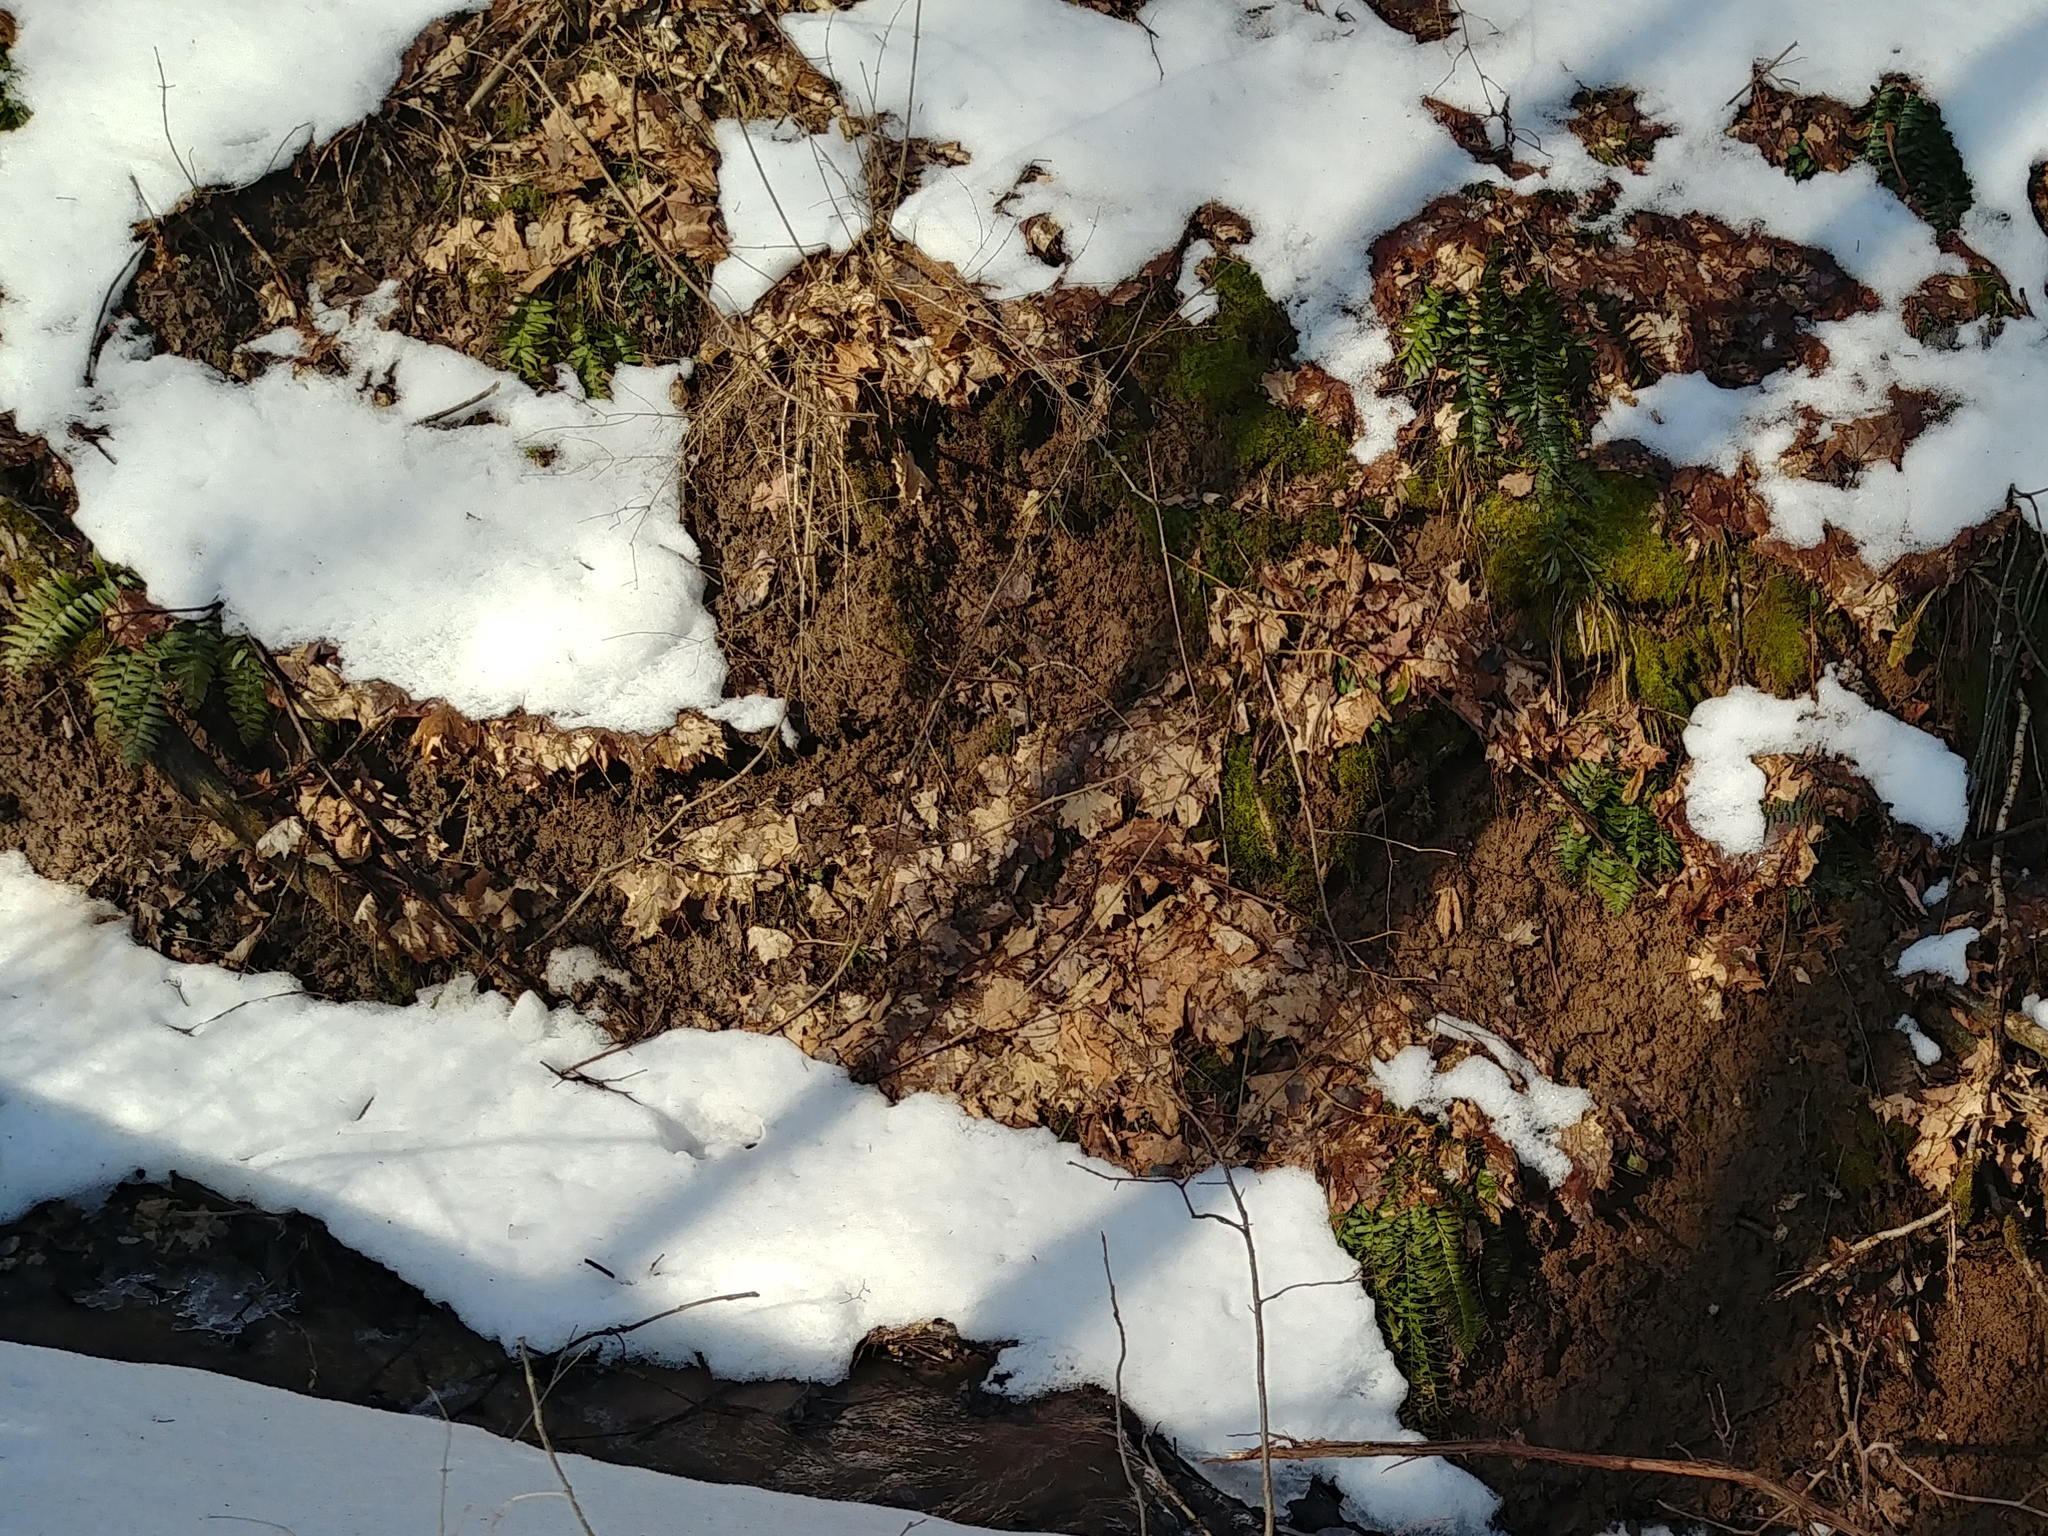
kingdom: Plantae
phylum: Tracheophyta
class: Polypodiopsida
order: Polypodiales
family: Dryopteridaceae
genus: Polystichum
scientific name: Polystichum acrostichoides
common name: Christmas fern
